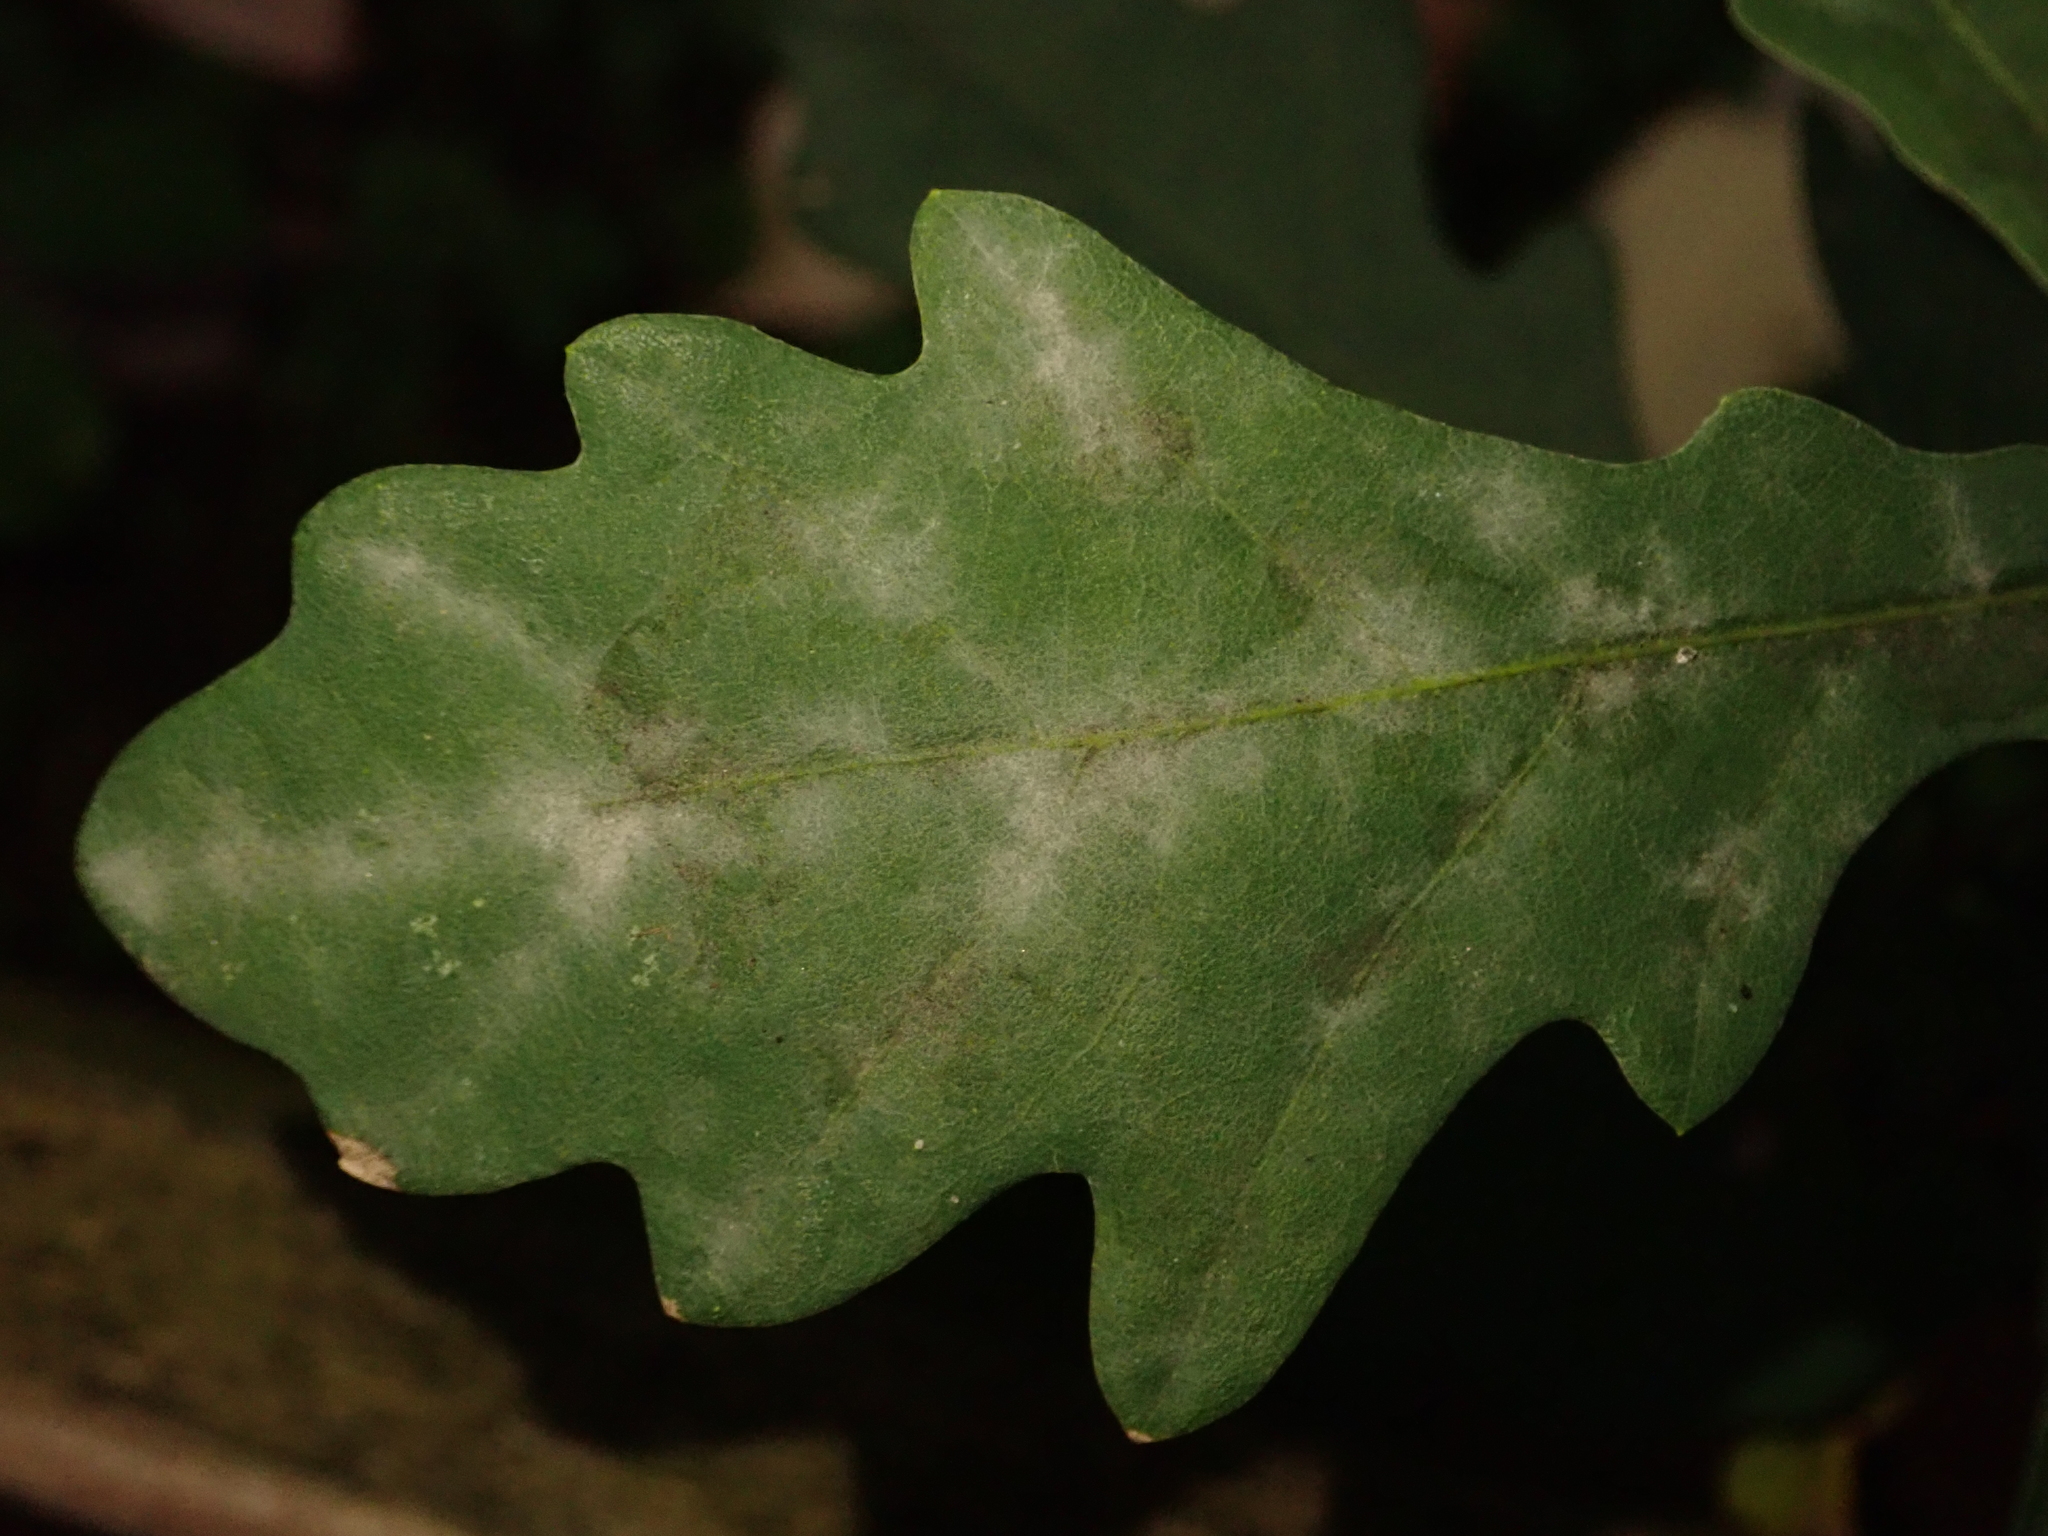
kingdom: Fungi
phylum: Ascomycota
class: Leotiomycetes
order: Helotiales
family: Erysiphaceae
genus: Erysiphe
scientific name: Erysiphe
